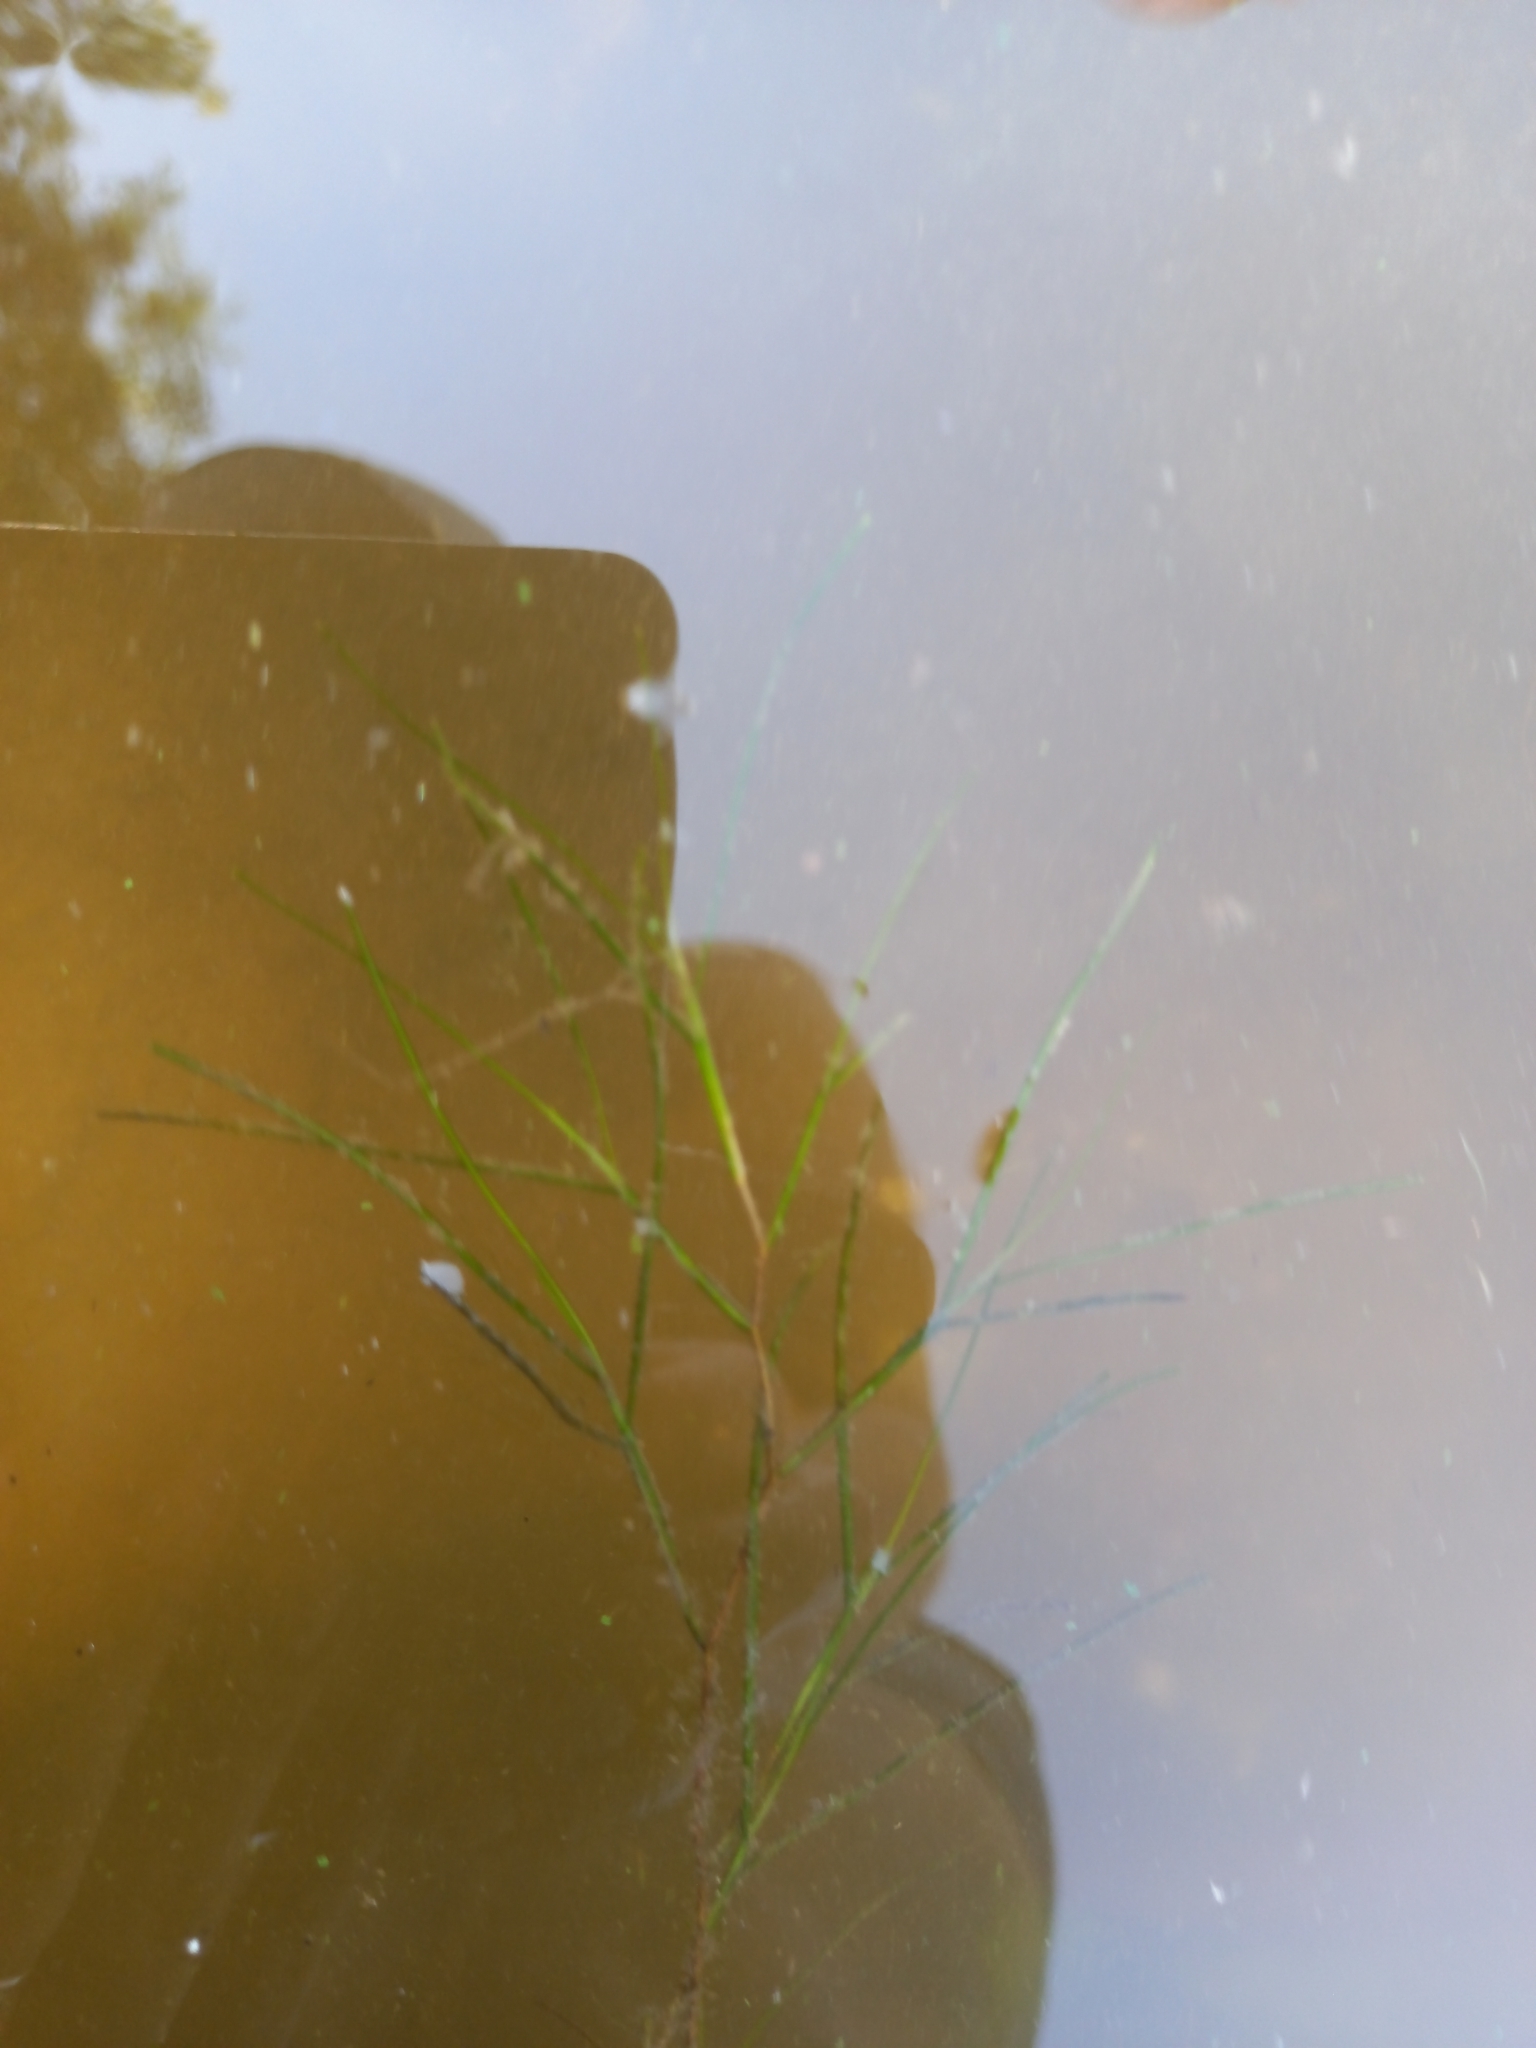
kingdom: Plantae
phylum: Tracheophyta
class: Liliopsida
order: Alismatales
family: Potamogetonaceae
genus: Stuckenia
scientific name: Stuckenia pectinata
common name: Sago pondweed
